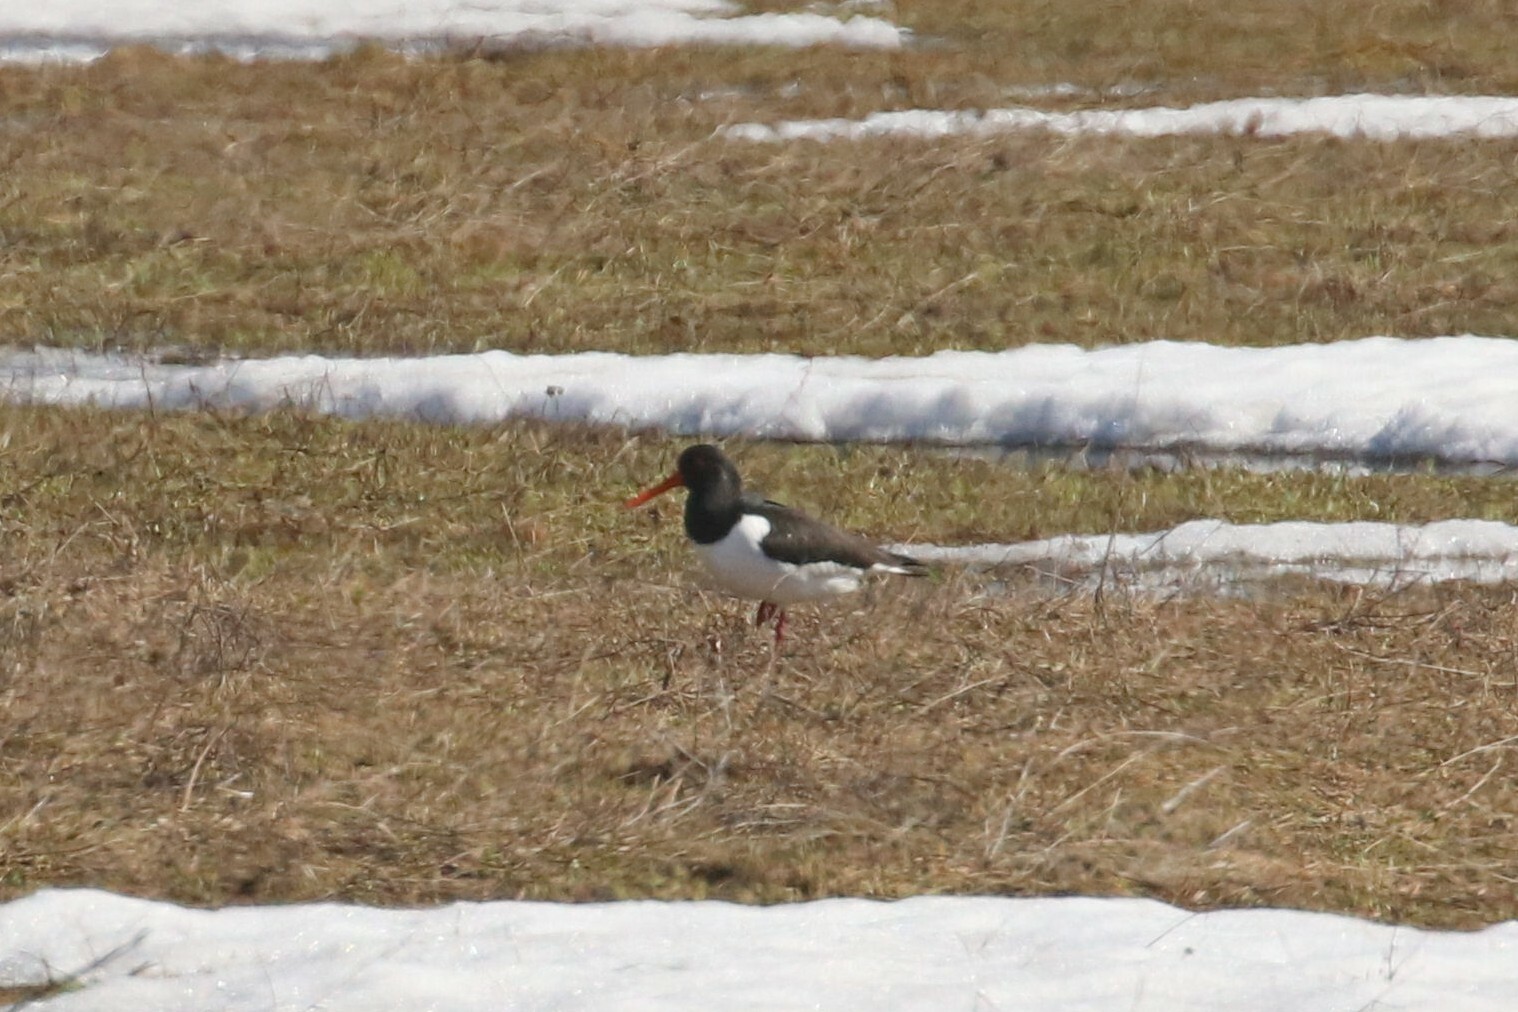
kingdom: Animalia
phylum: Chordata
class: Aves
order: Charadriiformes
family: Haematopodidae
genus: Haematopus
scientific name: Haematopus ostralegus
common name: Eurasian oystercatcher
